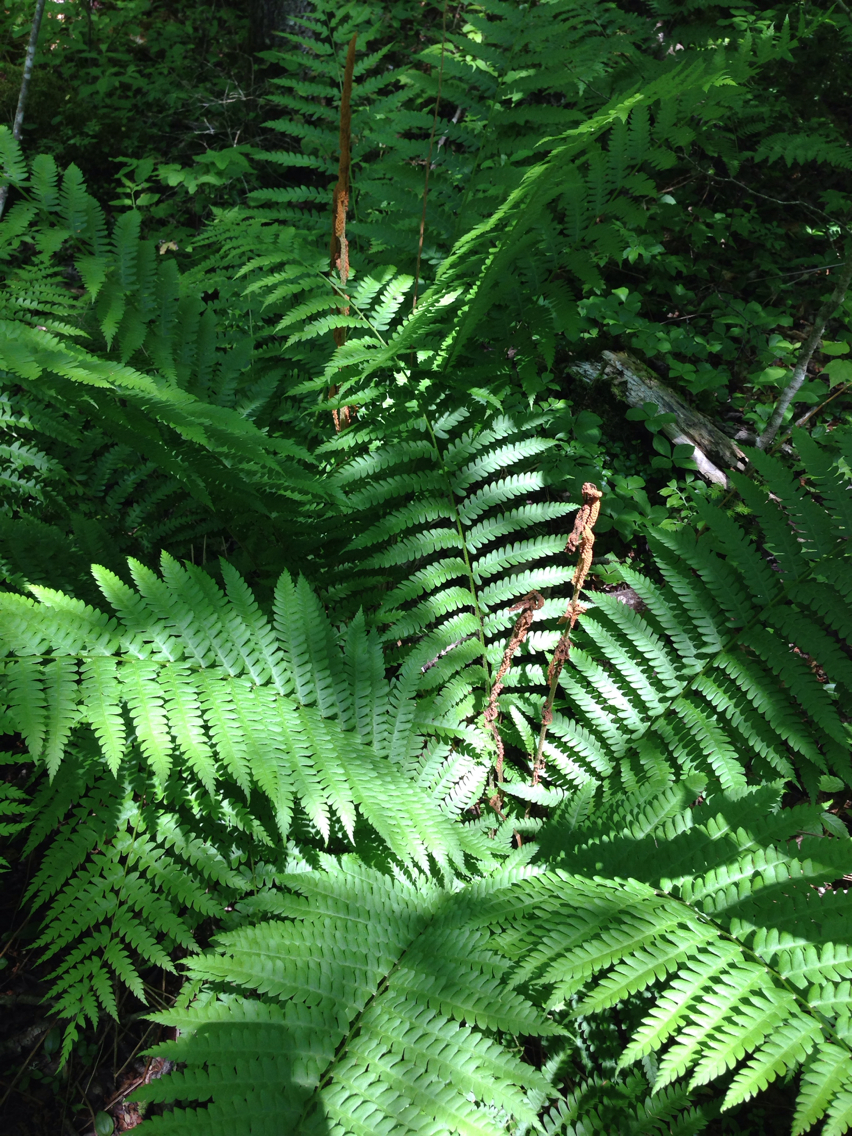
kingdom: Plantae
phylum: Tracheophyta
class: Polypodiopsida
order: Osmundales
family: Osmundaceae
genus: Osmundastrum
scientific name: Osmundastrum cinnamomeum
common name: Cinnamon fern
